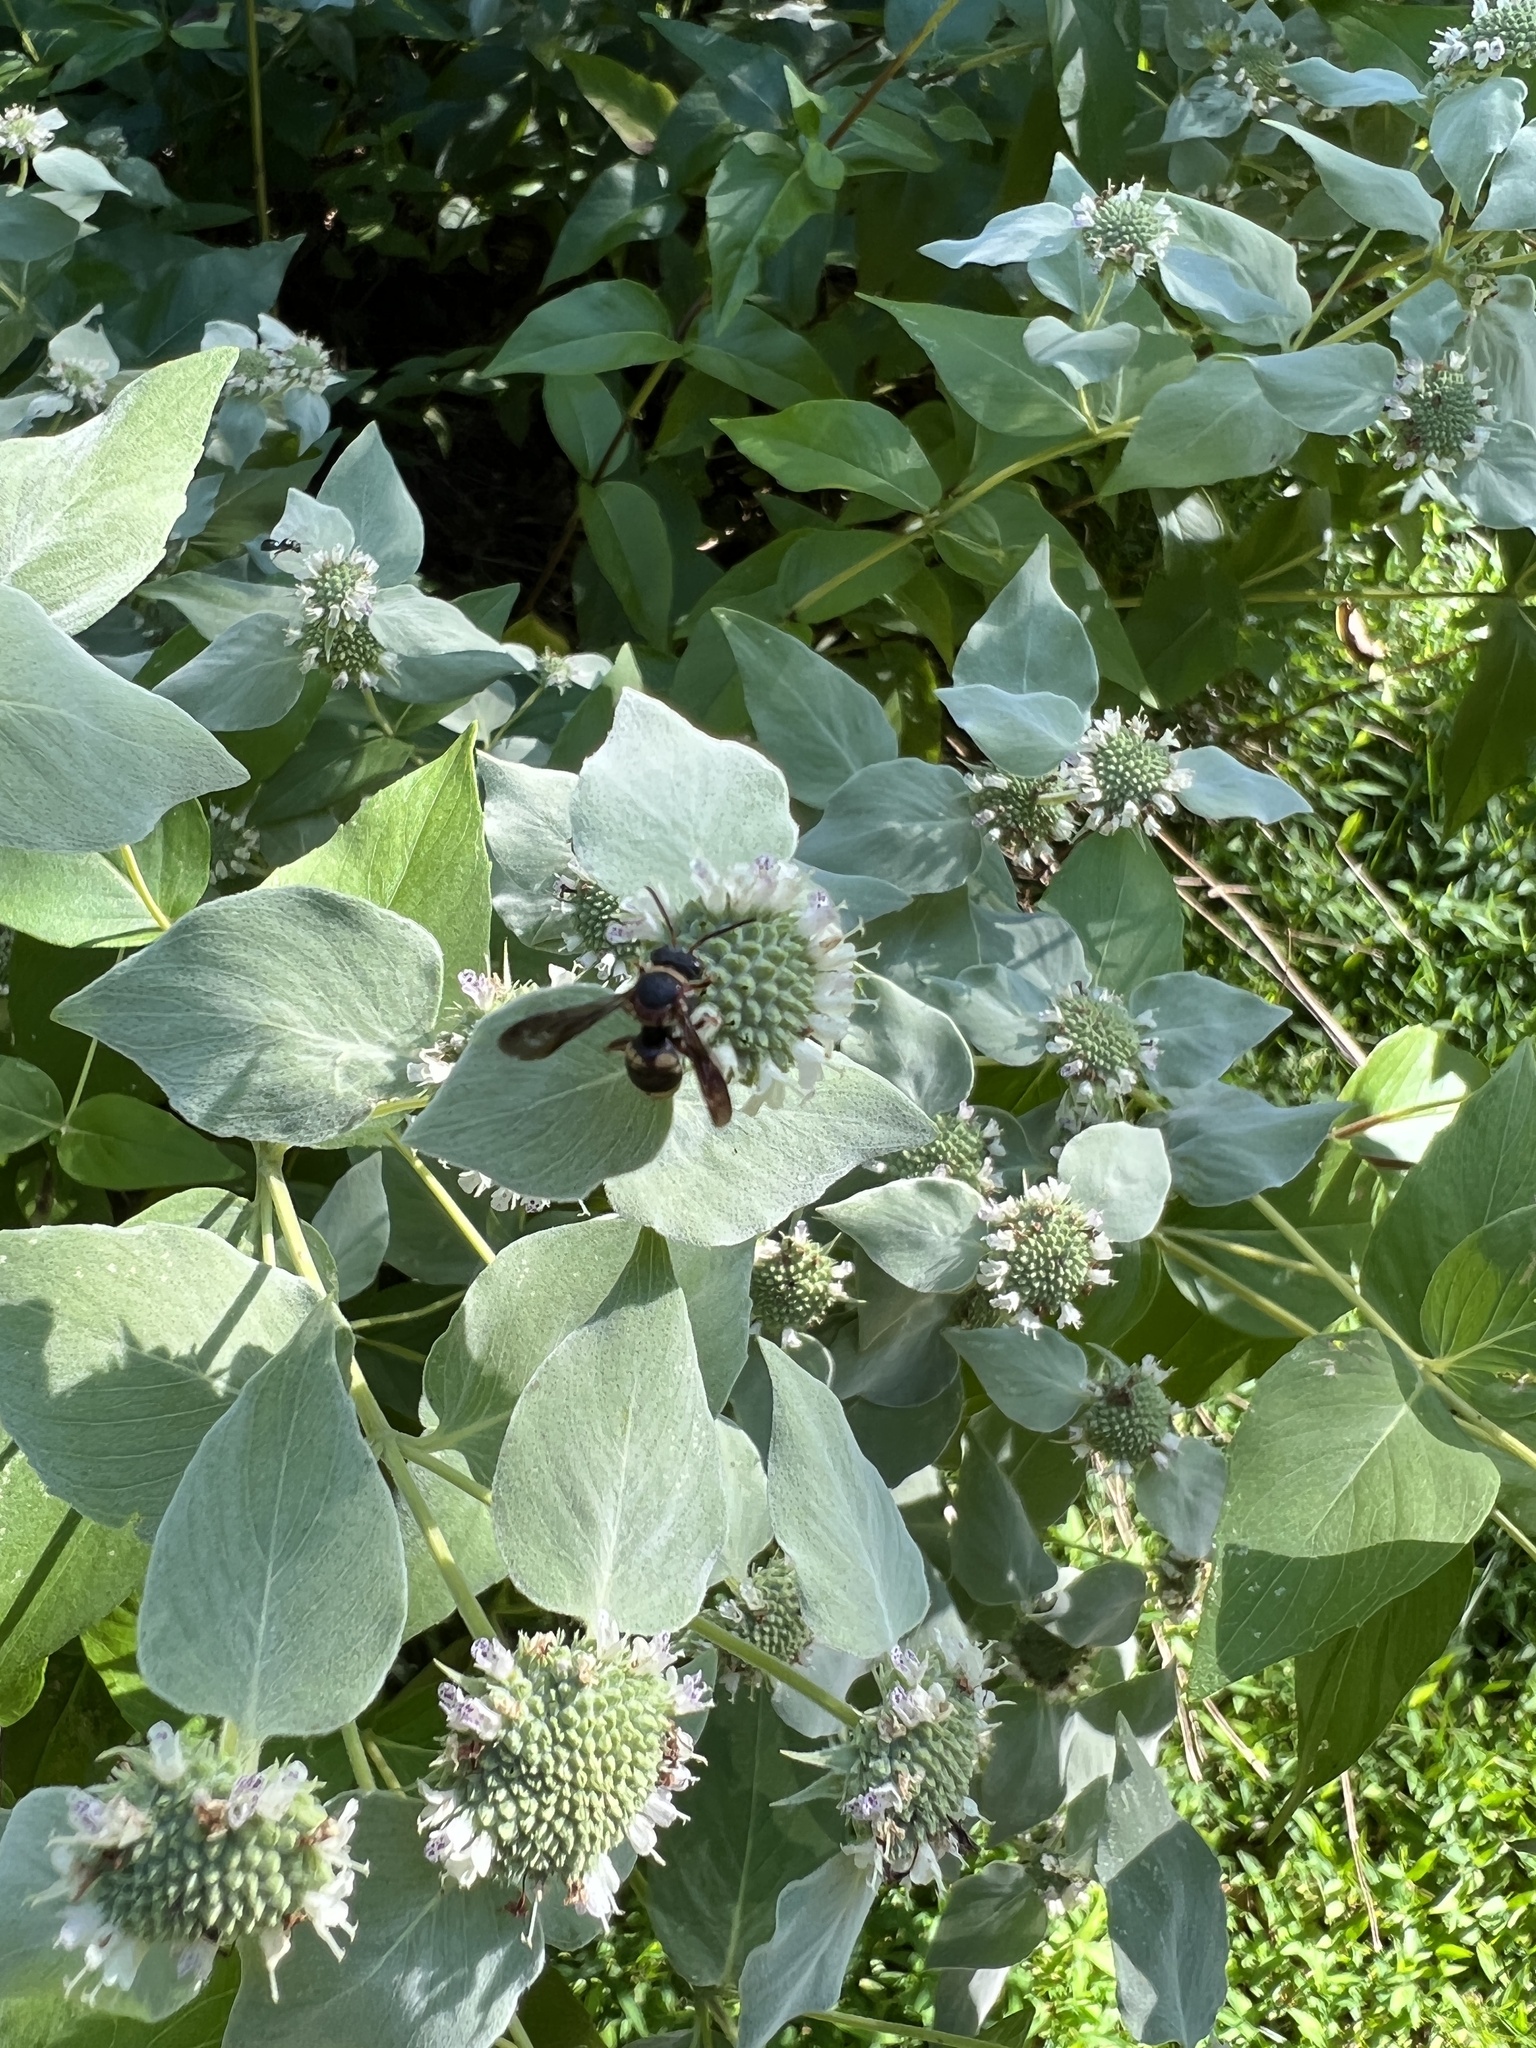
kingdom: Animalia
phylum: Arthropoda
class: Insecta
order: Hymenoptera
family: Apidae
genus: Epeolus
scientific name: Epeolus bifasciatus
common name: Two-banded cellophane-cuckoo
